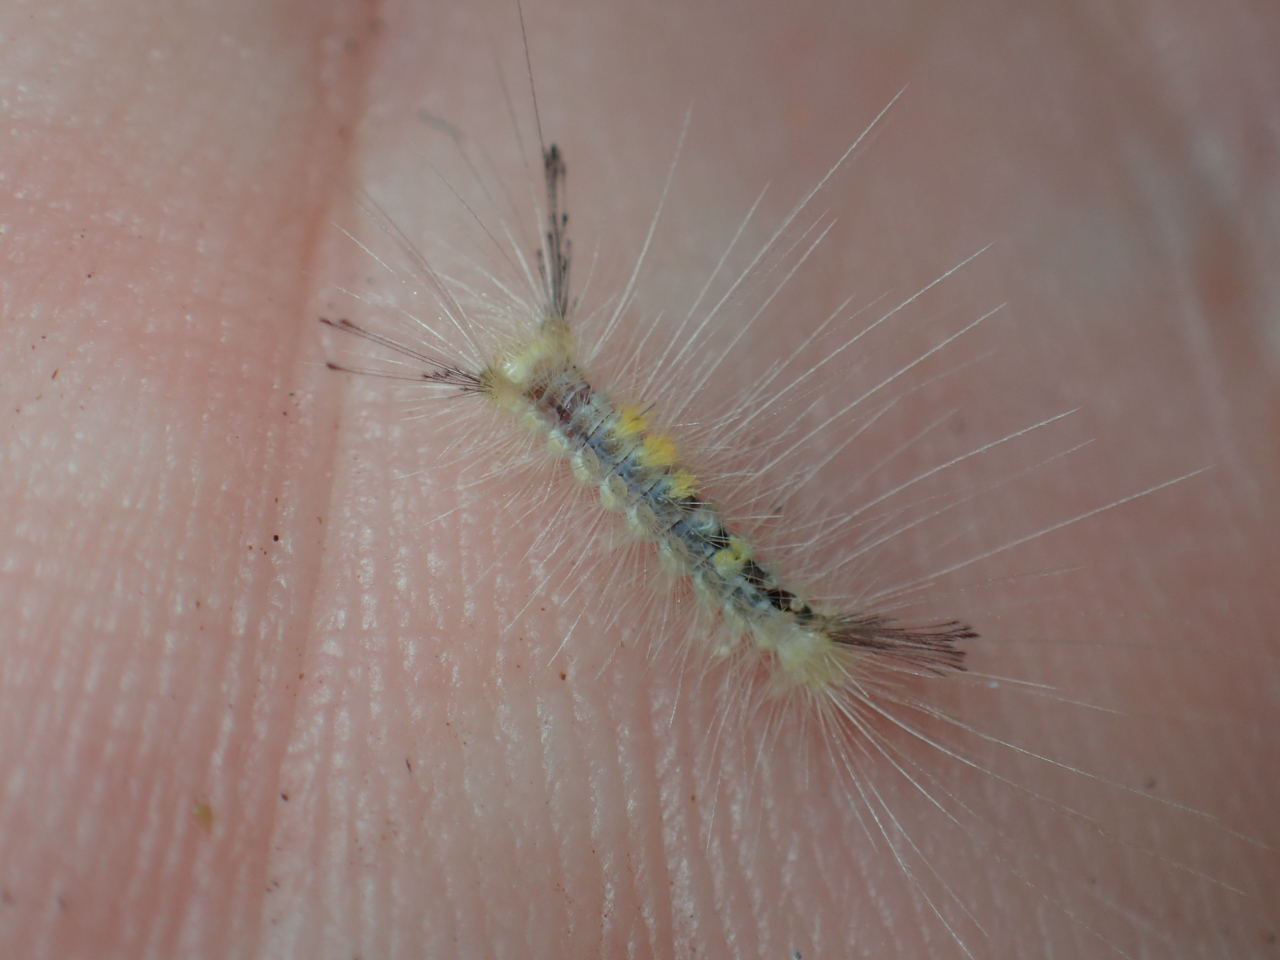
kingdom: Animalia
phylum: Arthropoda
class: Insecta
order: Lepidoptera
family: Erebidae
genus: Orgyia
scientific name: Orgyia definita
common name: Definite tussock moth
